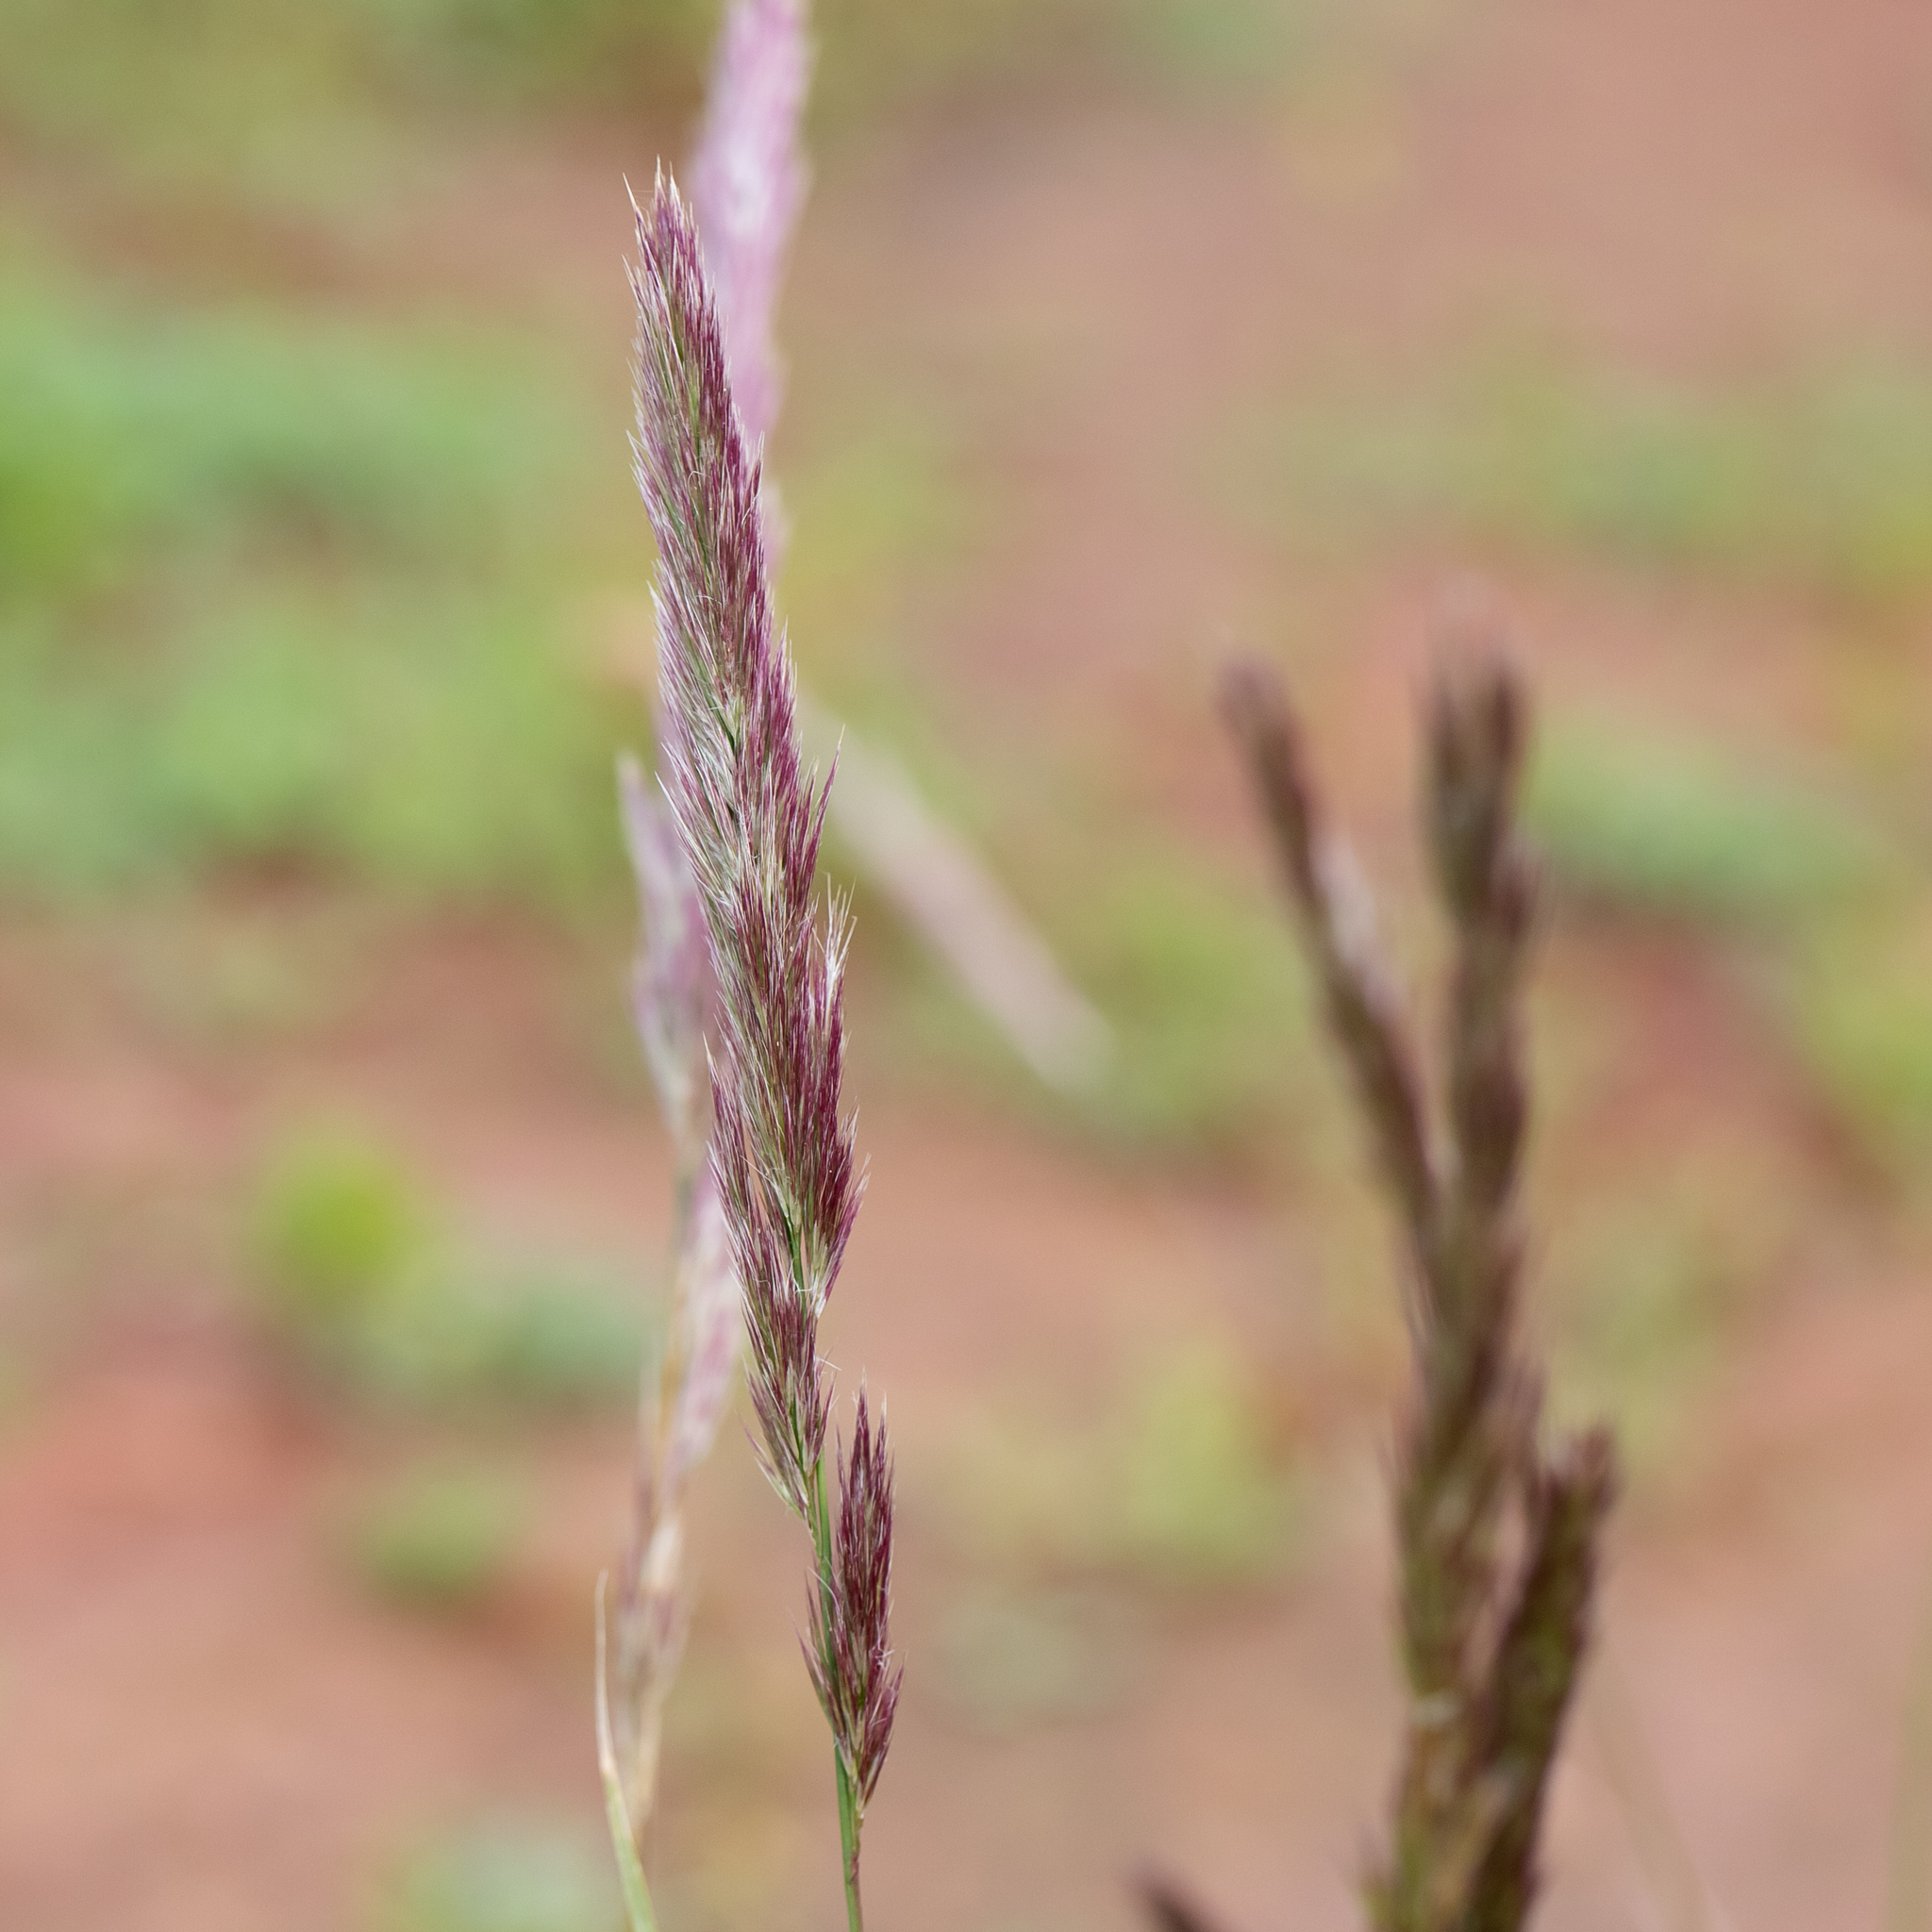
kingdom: Plantae
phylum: Tracheophyta
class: Liliopsida
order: Poales
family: Poaceae
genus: Triraphis
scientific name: Triraphis mollis
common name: Purple needlegrass
